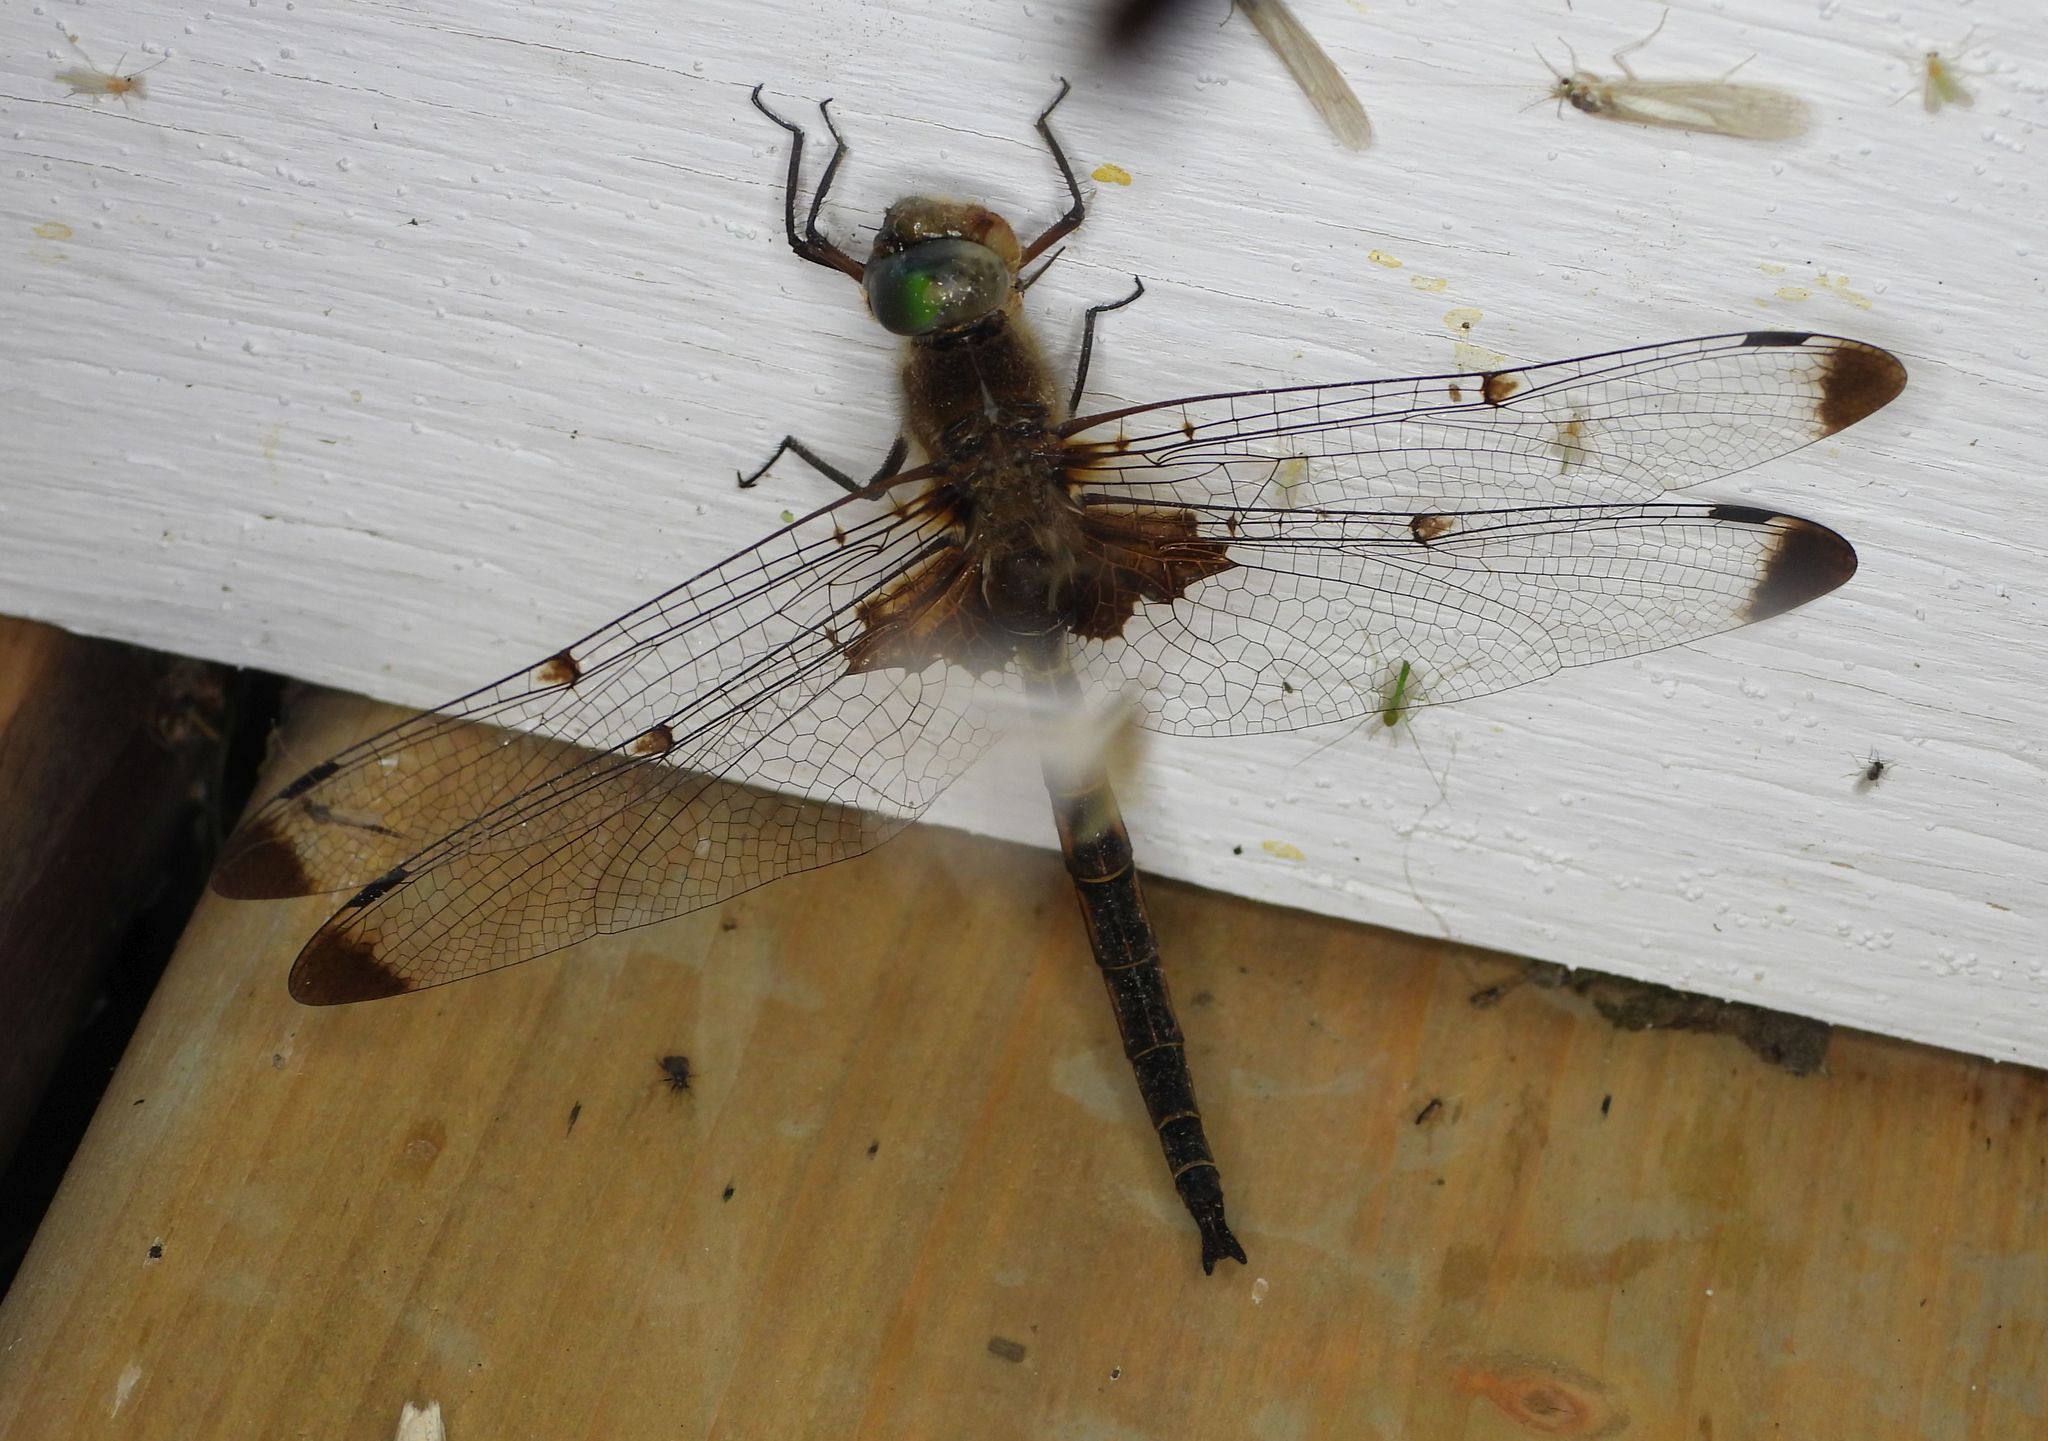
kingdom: Animalia
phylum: Arthropoda
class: Insecta
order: Odonata
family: Corduliidae
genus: Epitheca
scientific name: Epitheca princeps
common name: Prince baskettail
